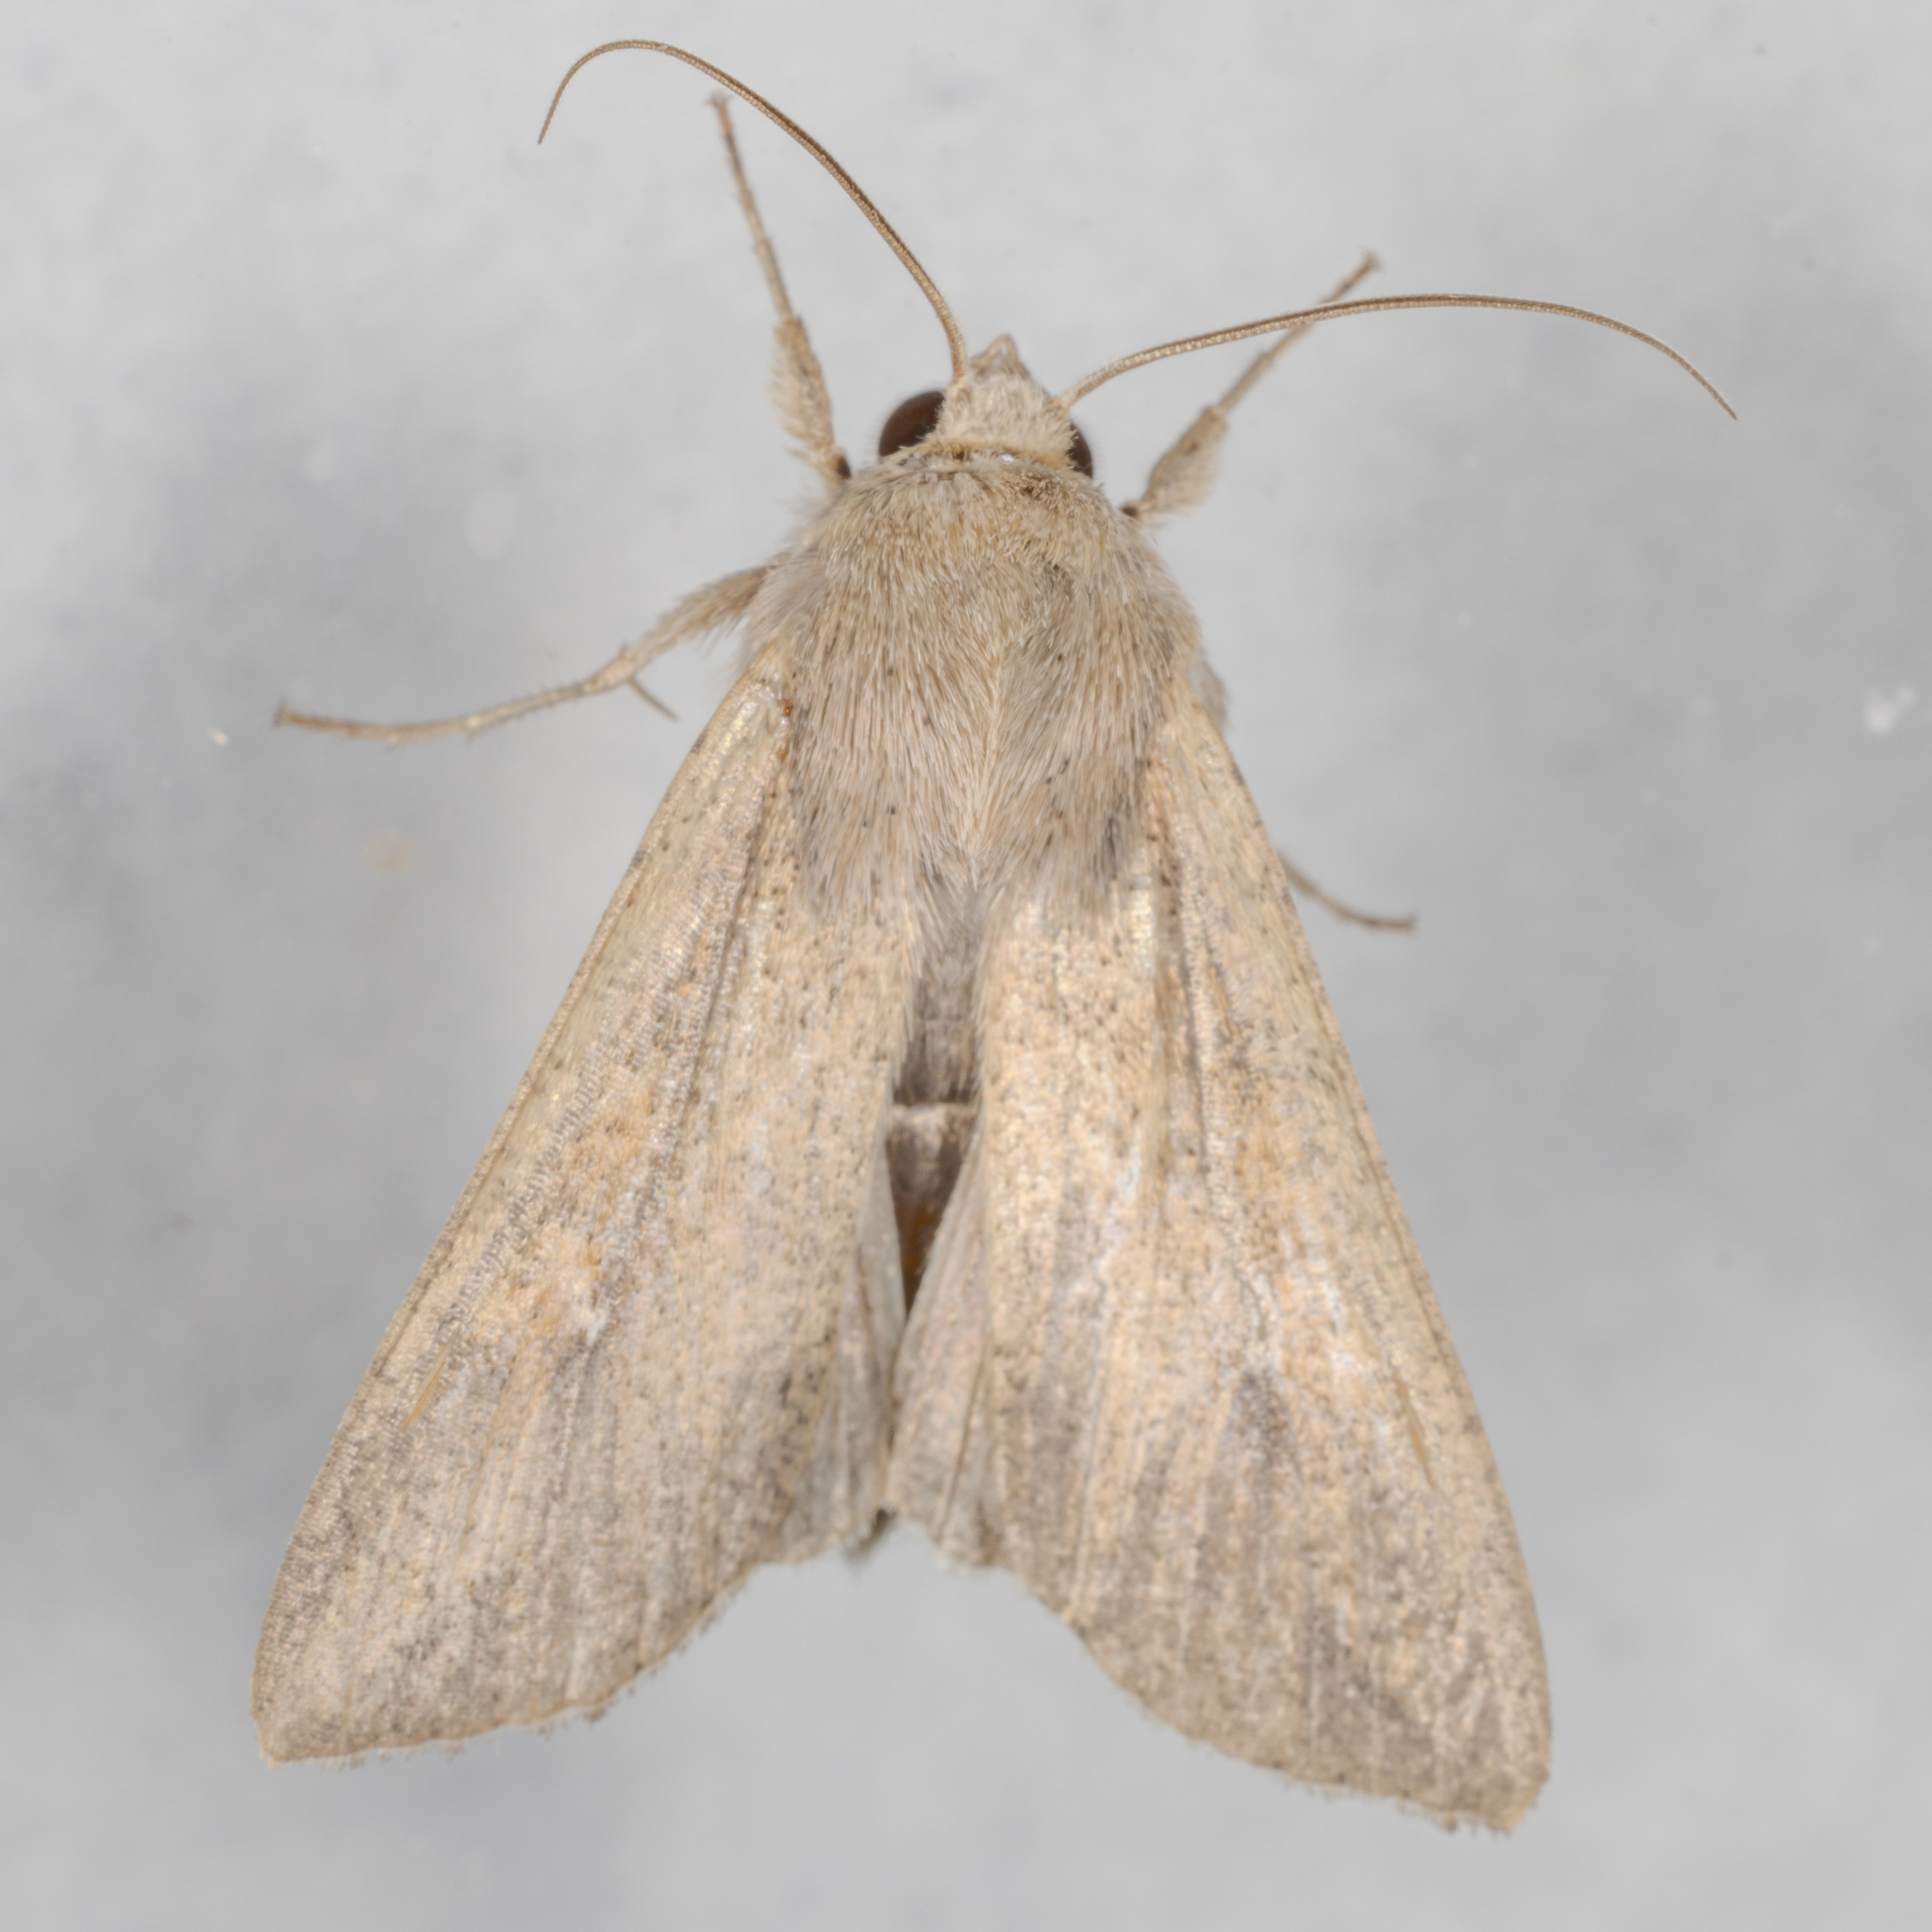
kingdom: Animalia
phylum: Arthropoda
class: Insecta
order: Lepidoptera
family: Noctuidae
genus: Mythimna
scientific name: Mythimna unipuncta
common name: White-speck
